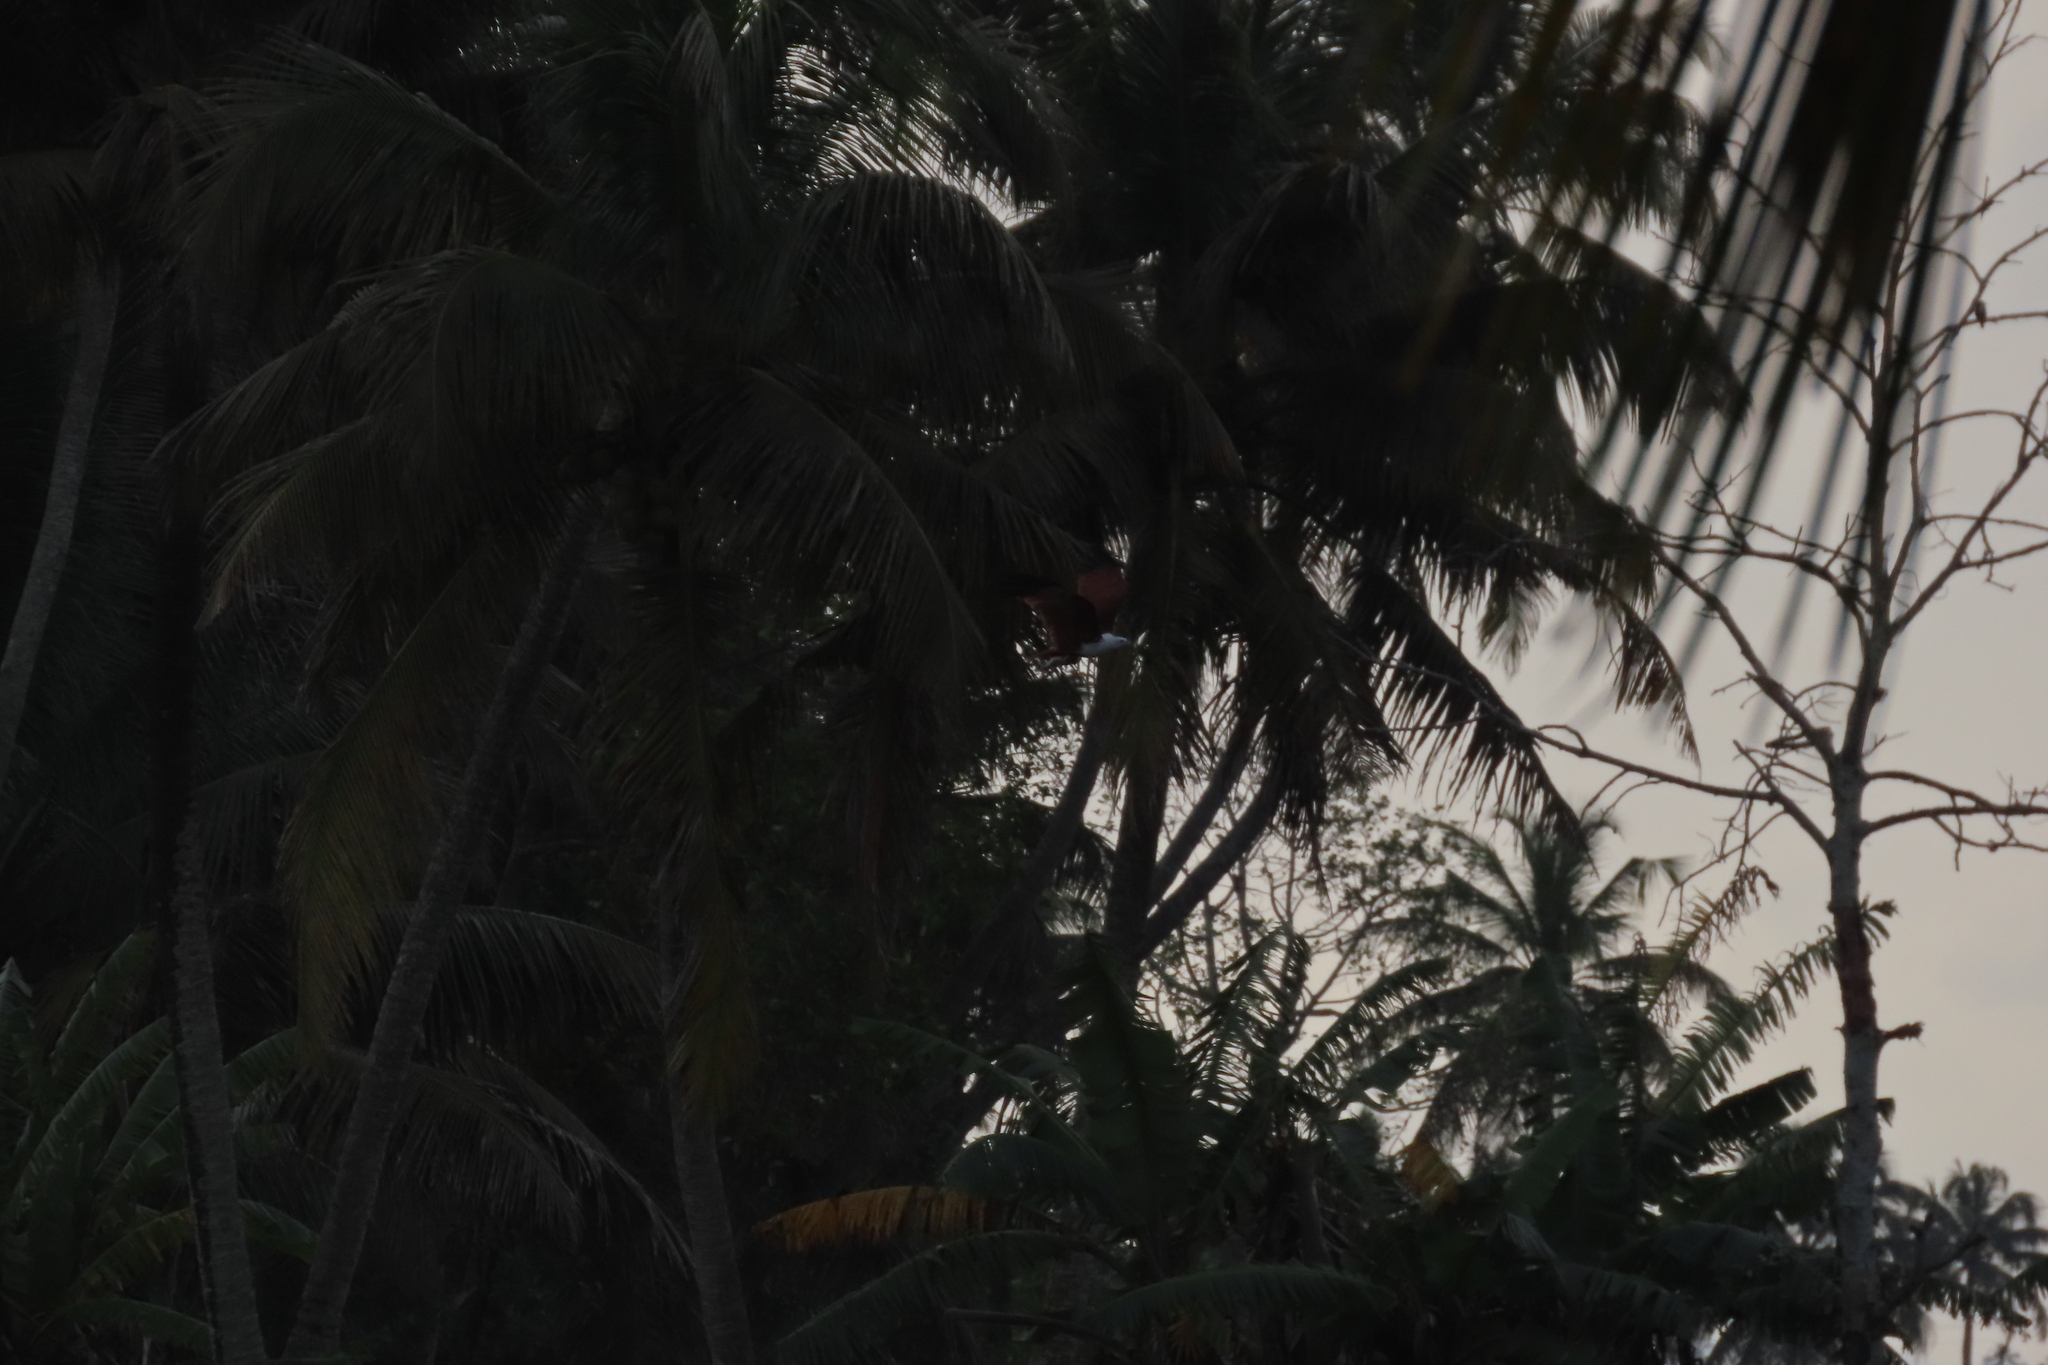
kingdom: Animalia
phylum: Chordata
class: Aves
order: Accipitriformes
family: Accipitridae
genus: Haliastur
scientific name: Haliastur indus
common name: Brahminy kite
